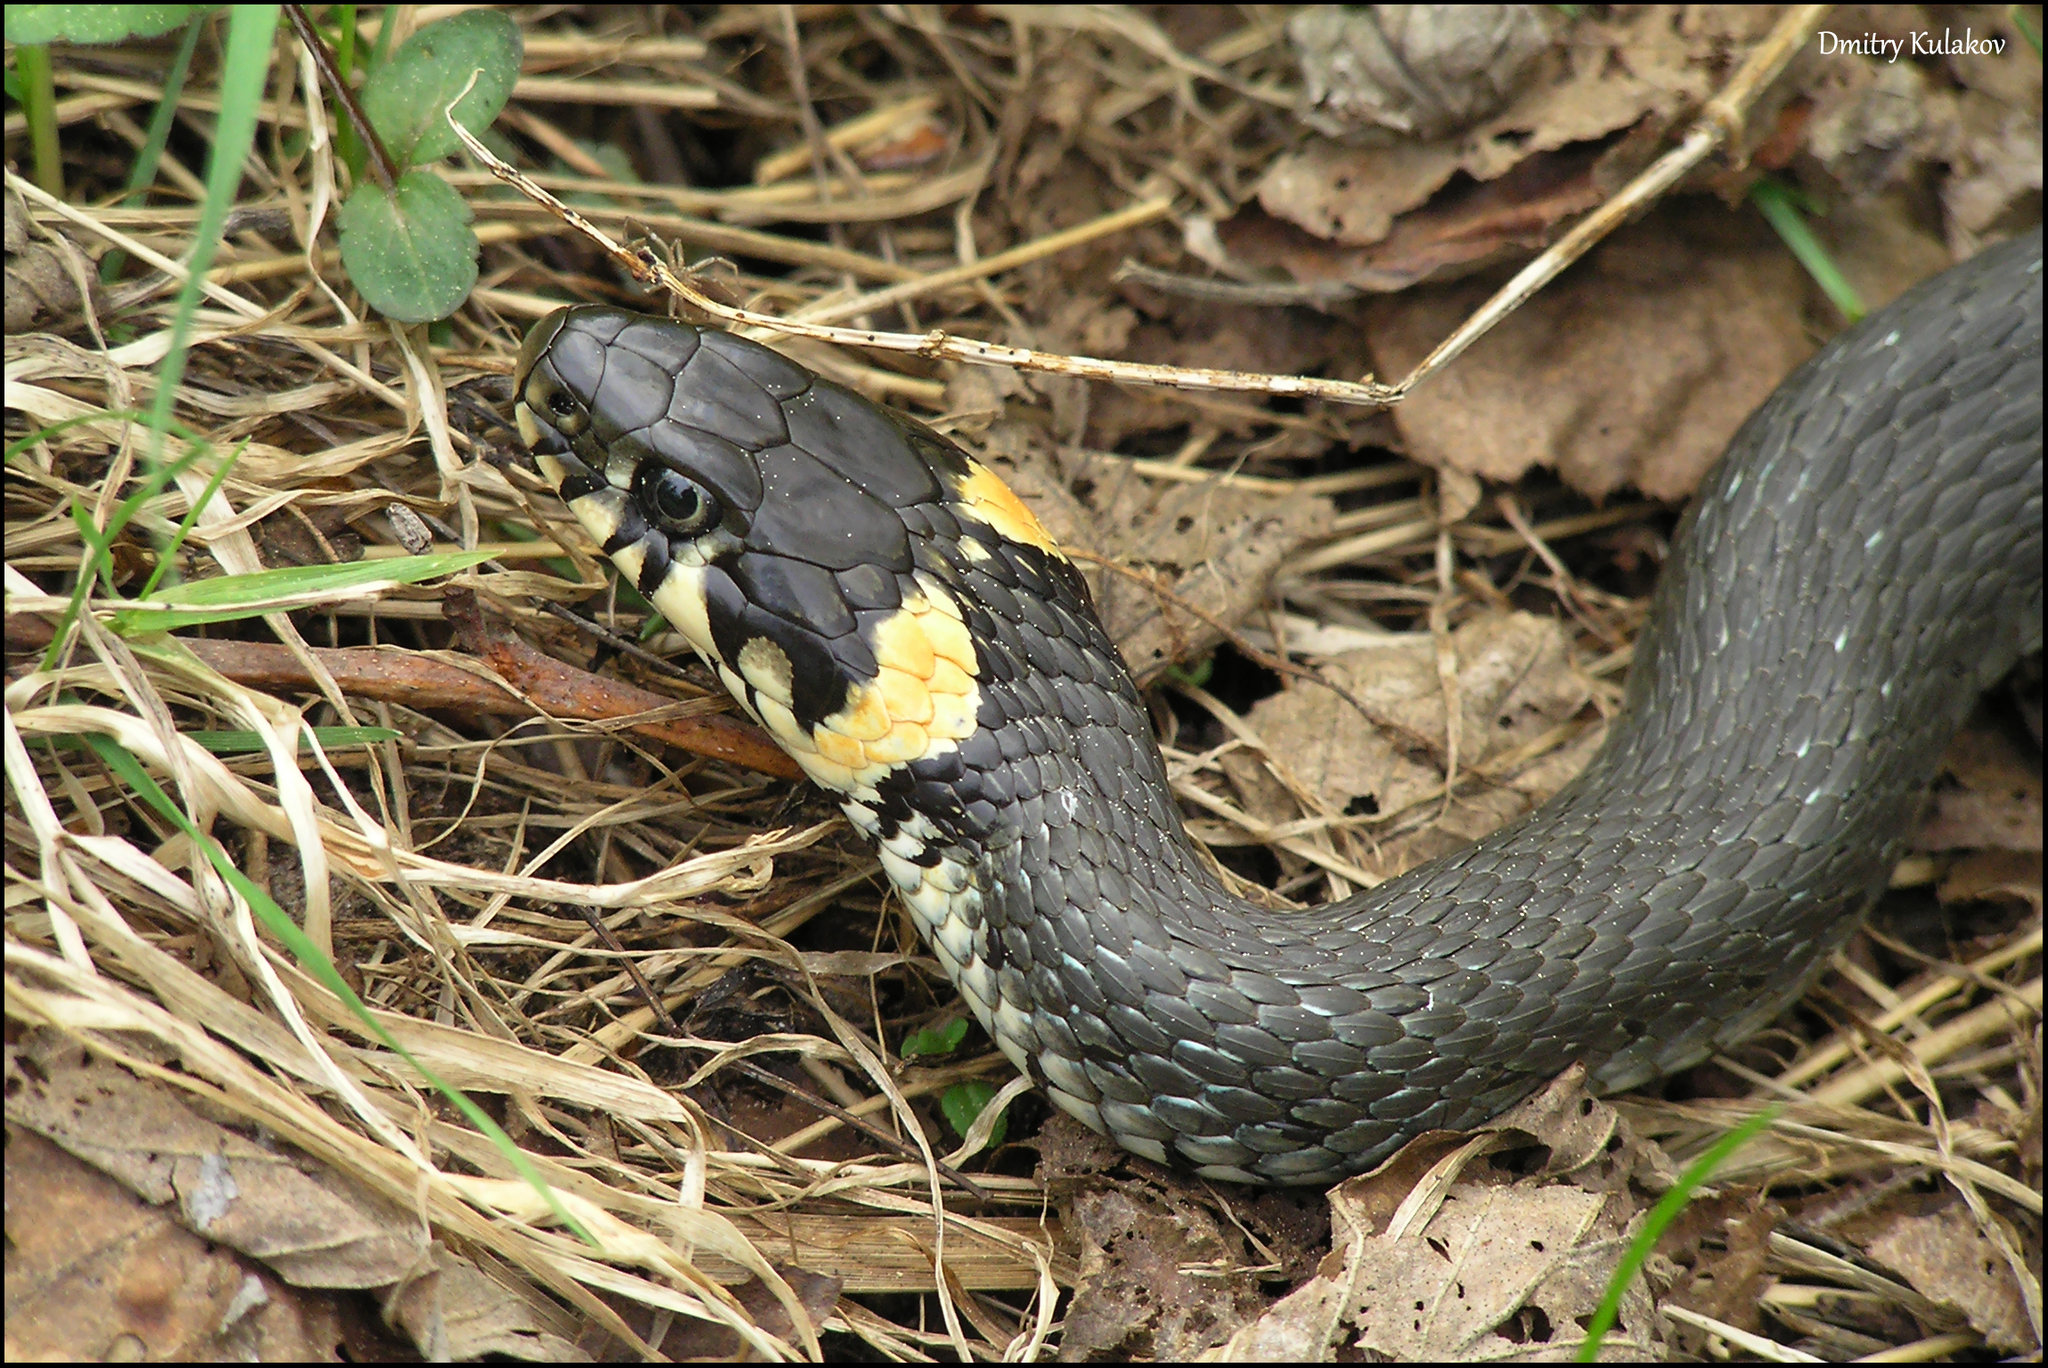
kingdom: Animalia
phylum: Chordata
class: Squamata
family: Colubridae
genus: Natrix
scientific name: Natrix natrix
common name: Grass snake
